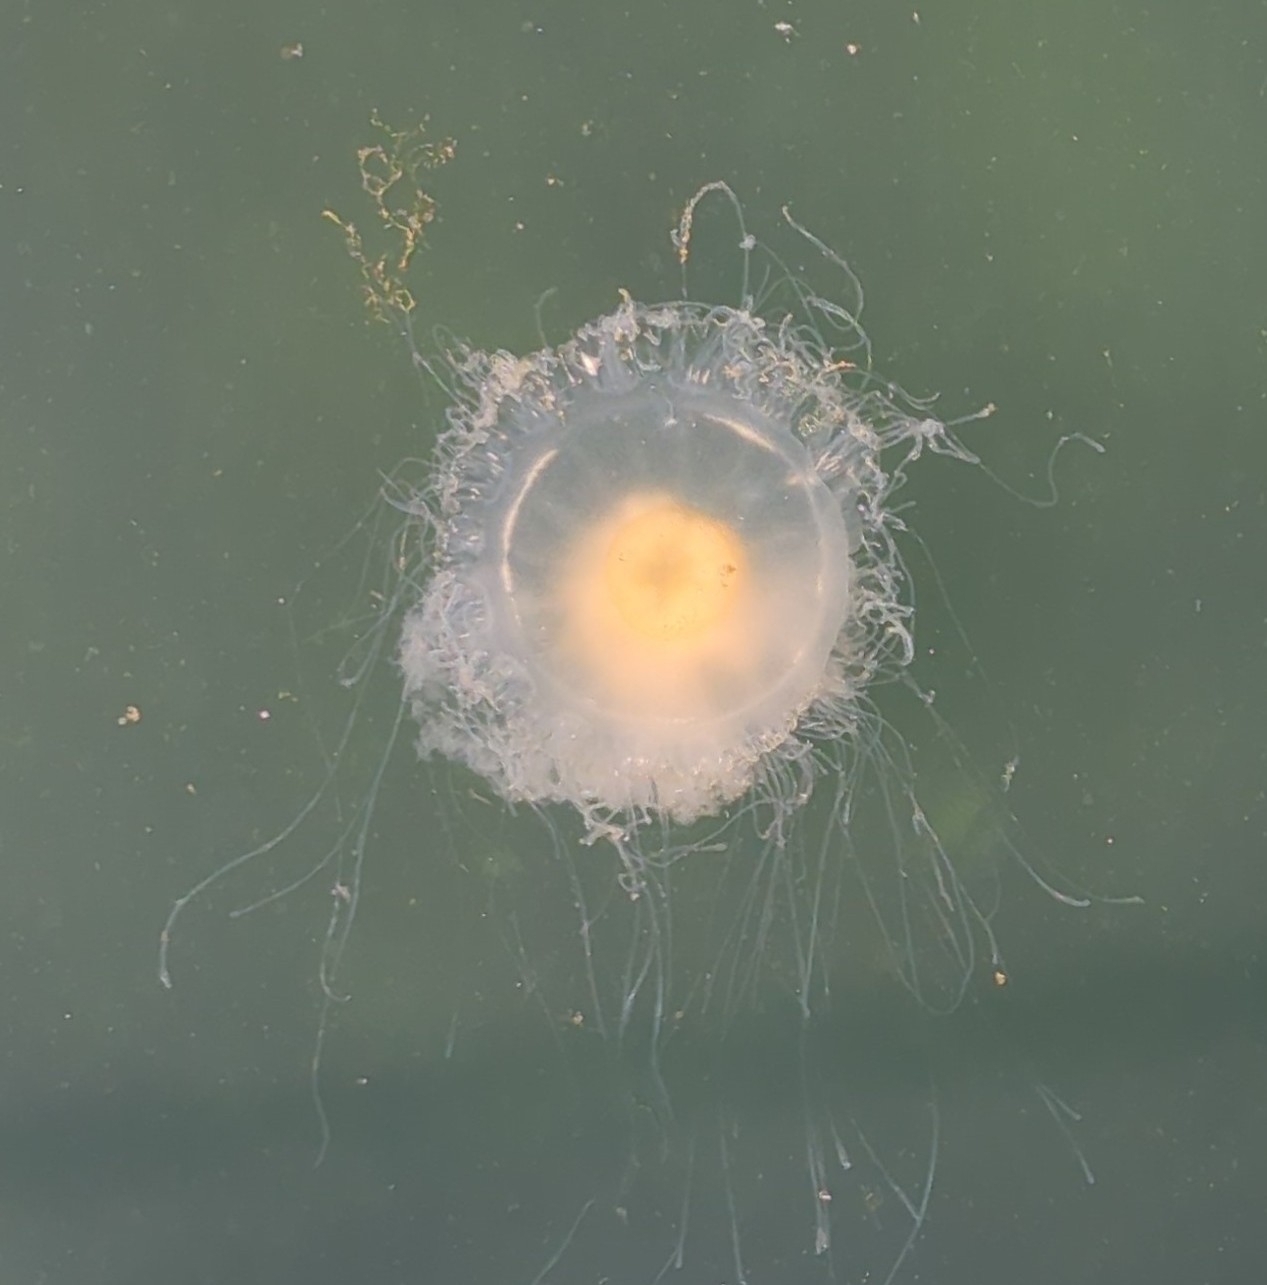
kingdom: Animalia
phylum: Cnidaria
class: Scyphozoa
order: Semaeostomeae
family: Phacellophoridae
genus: Phacellophora
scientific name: Phacellophora camtschatica
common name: Fried-egg jellyfish
